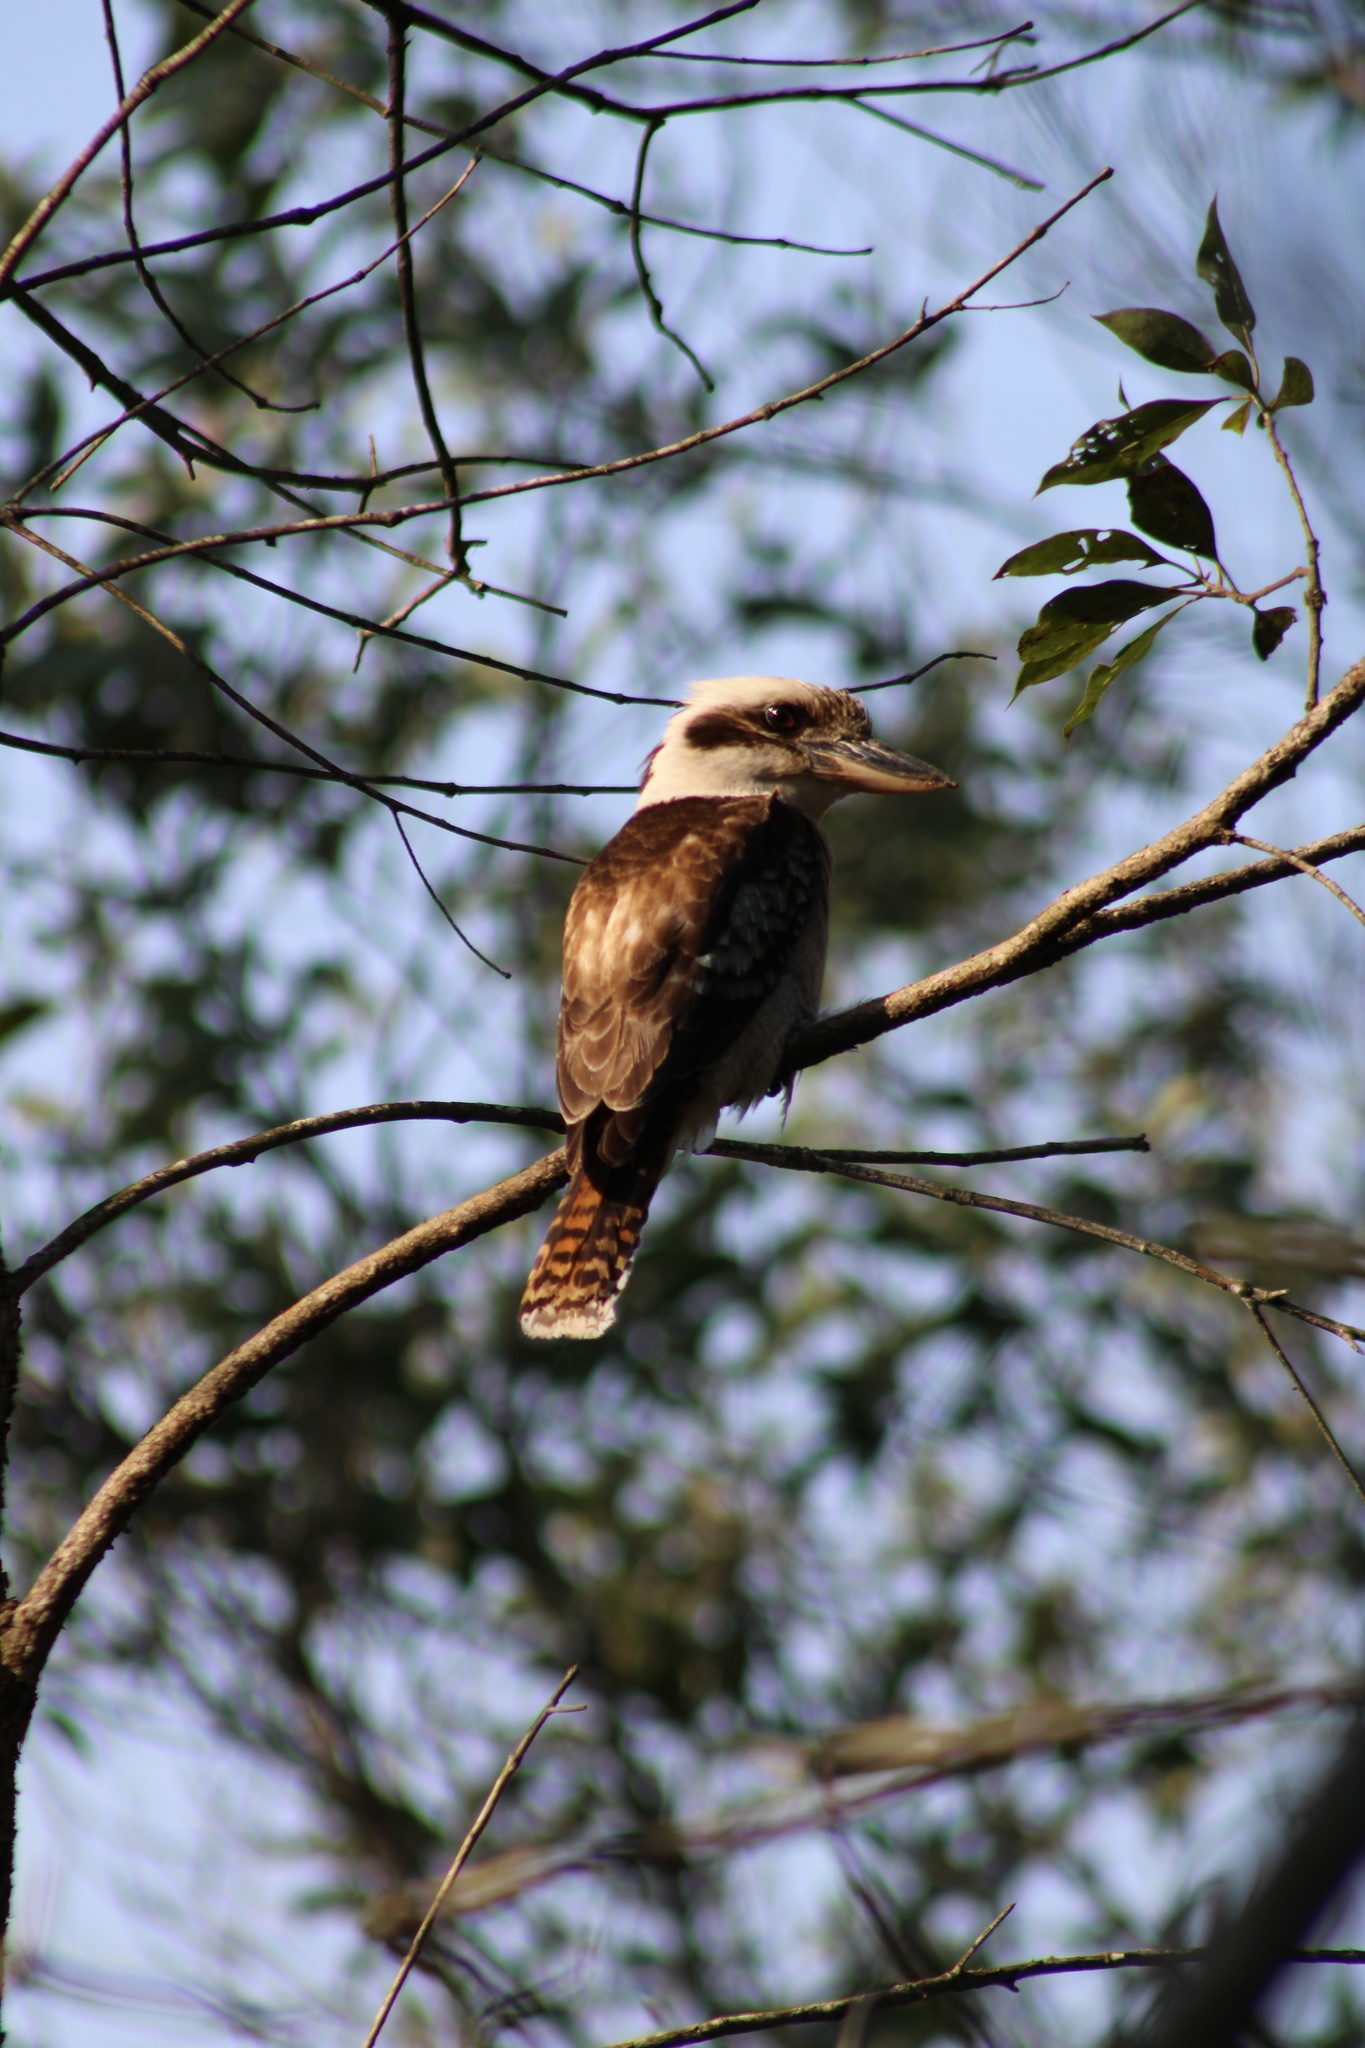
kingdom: Animalia
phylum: Chordata
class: Aves
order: Coraciiformes
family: Alcedinidae
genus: Dacelo
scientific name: Dacelo novaeguineae
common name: Laughing kookaburra
